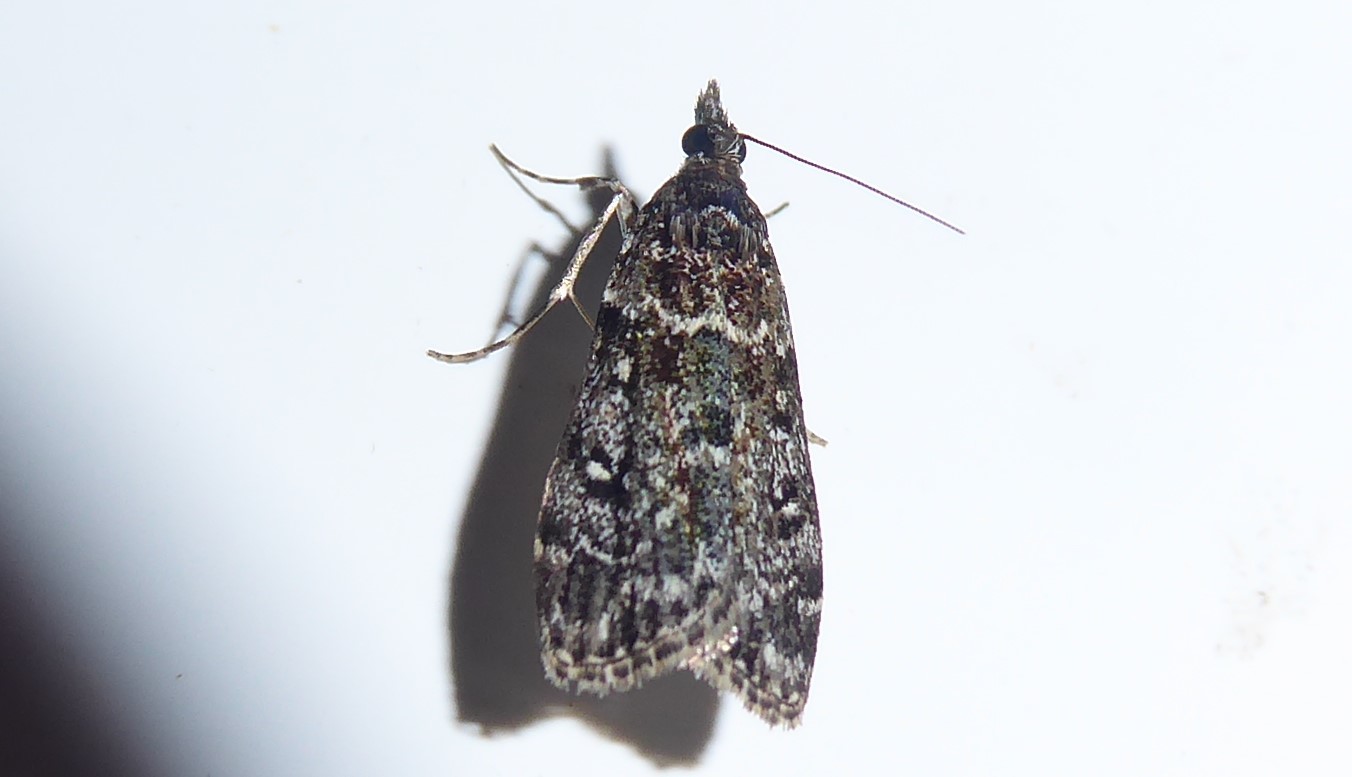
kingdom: Animalia
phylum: Arthropoda
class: Insecta
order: Lepidoptera
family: Crambidae
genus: Eudonia
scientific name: Eudonia philerga
